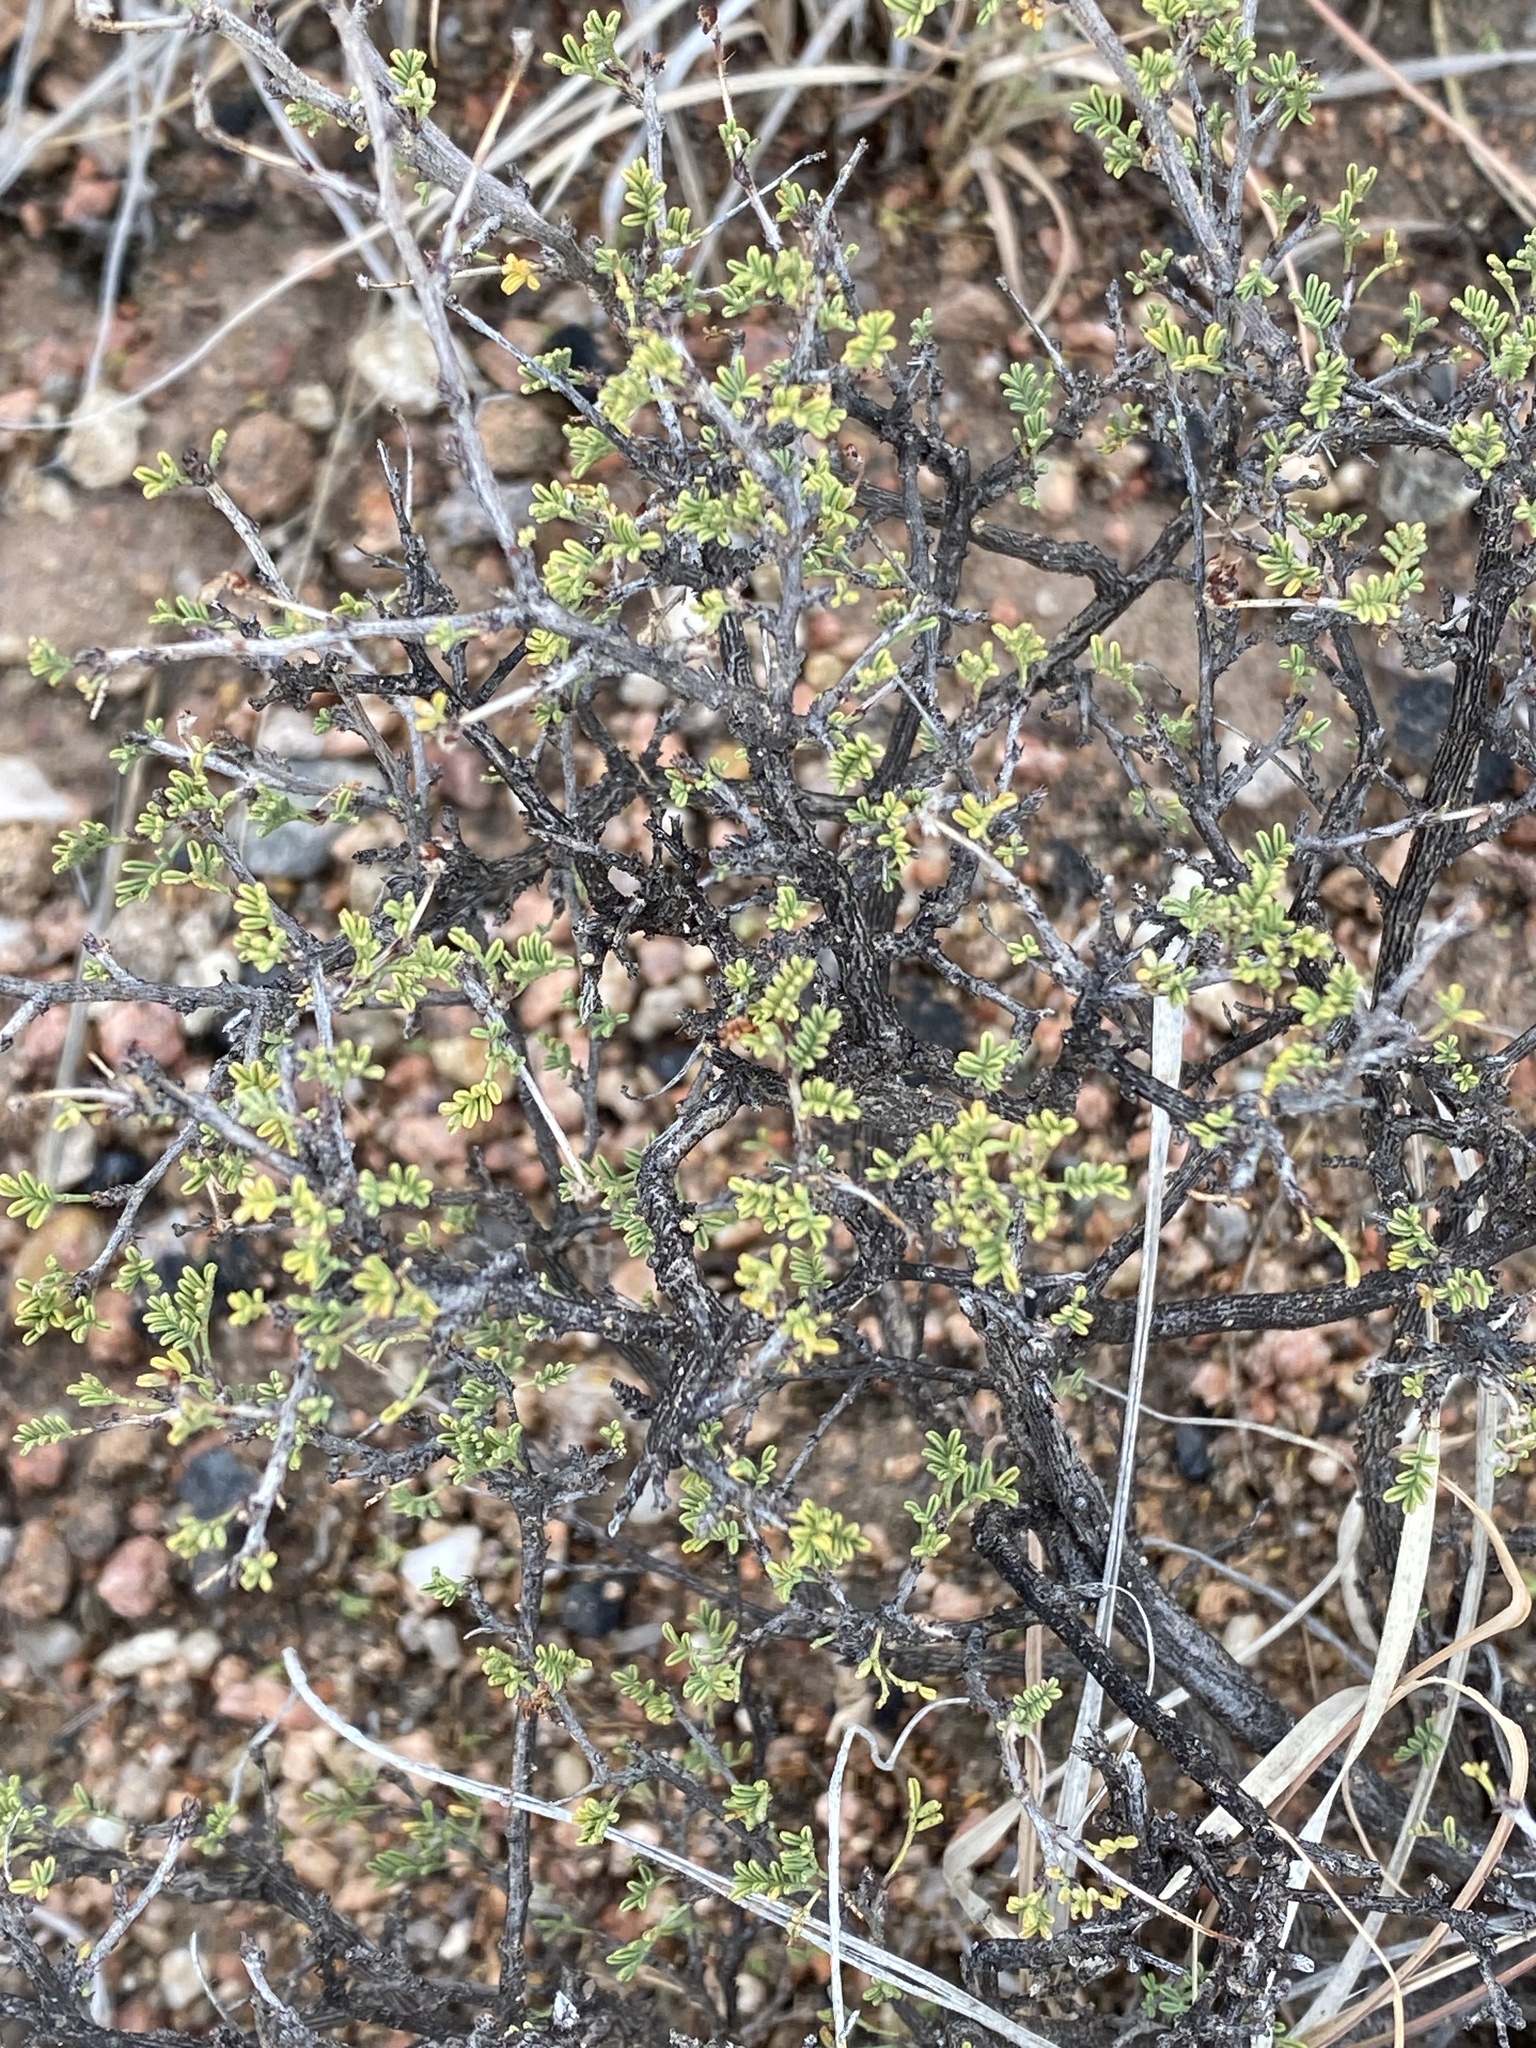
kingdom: Plantae
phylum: Tracheophyta
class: Magnoliopsida
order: Fabales
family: Fabaceae
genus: Dalea
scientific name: Dalea formosa
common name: Feather-plume dalea
